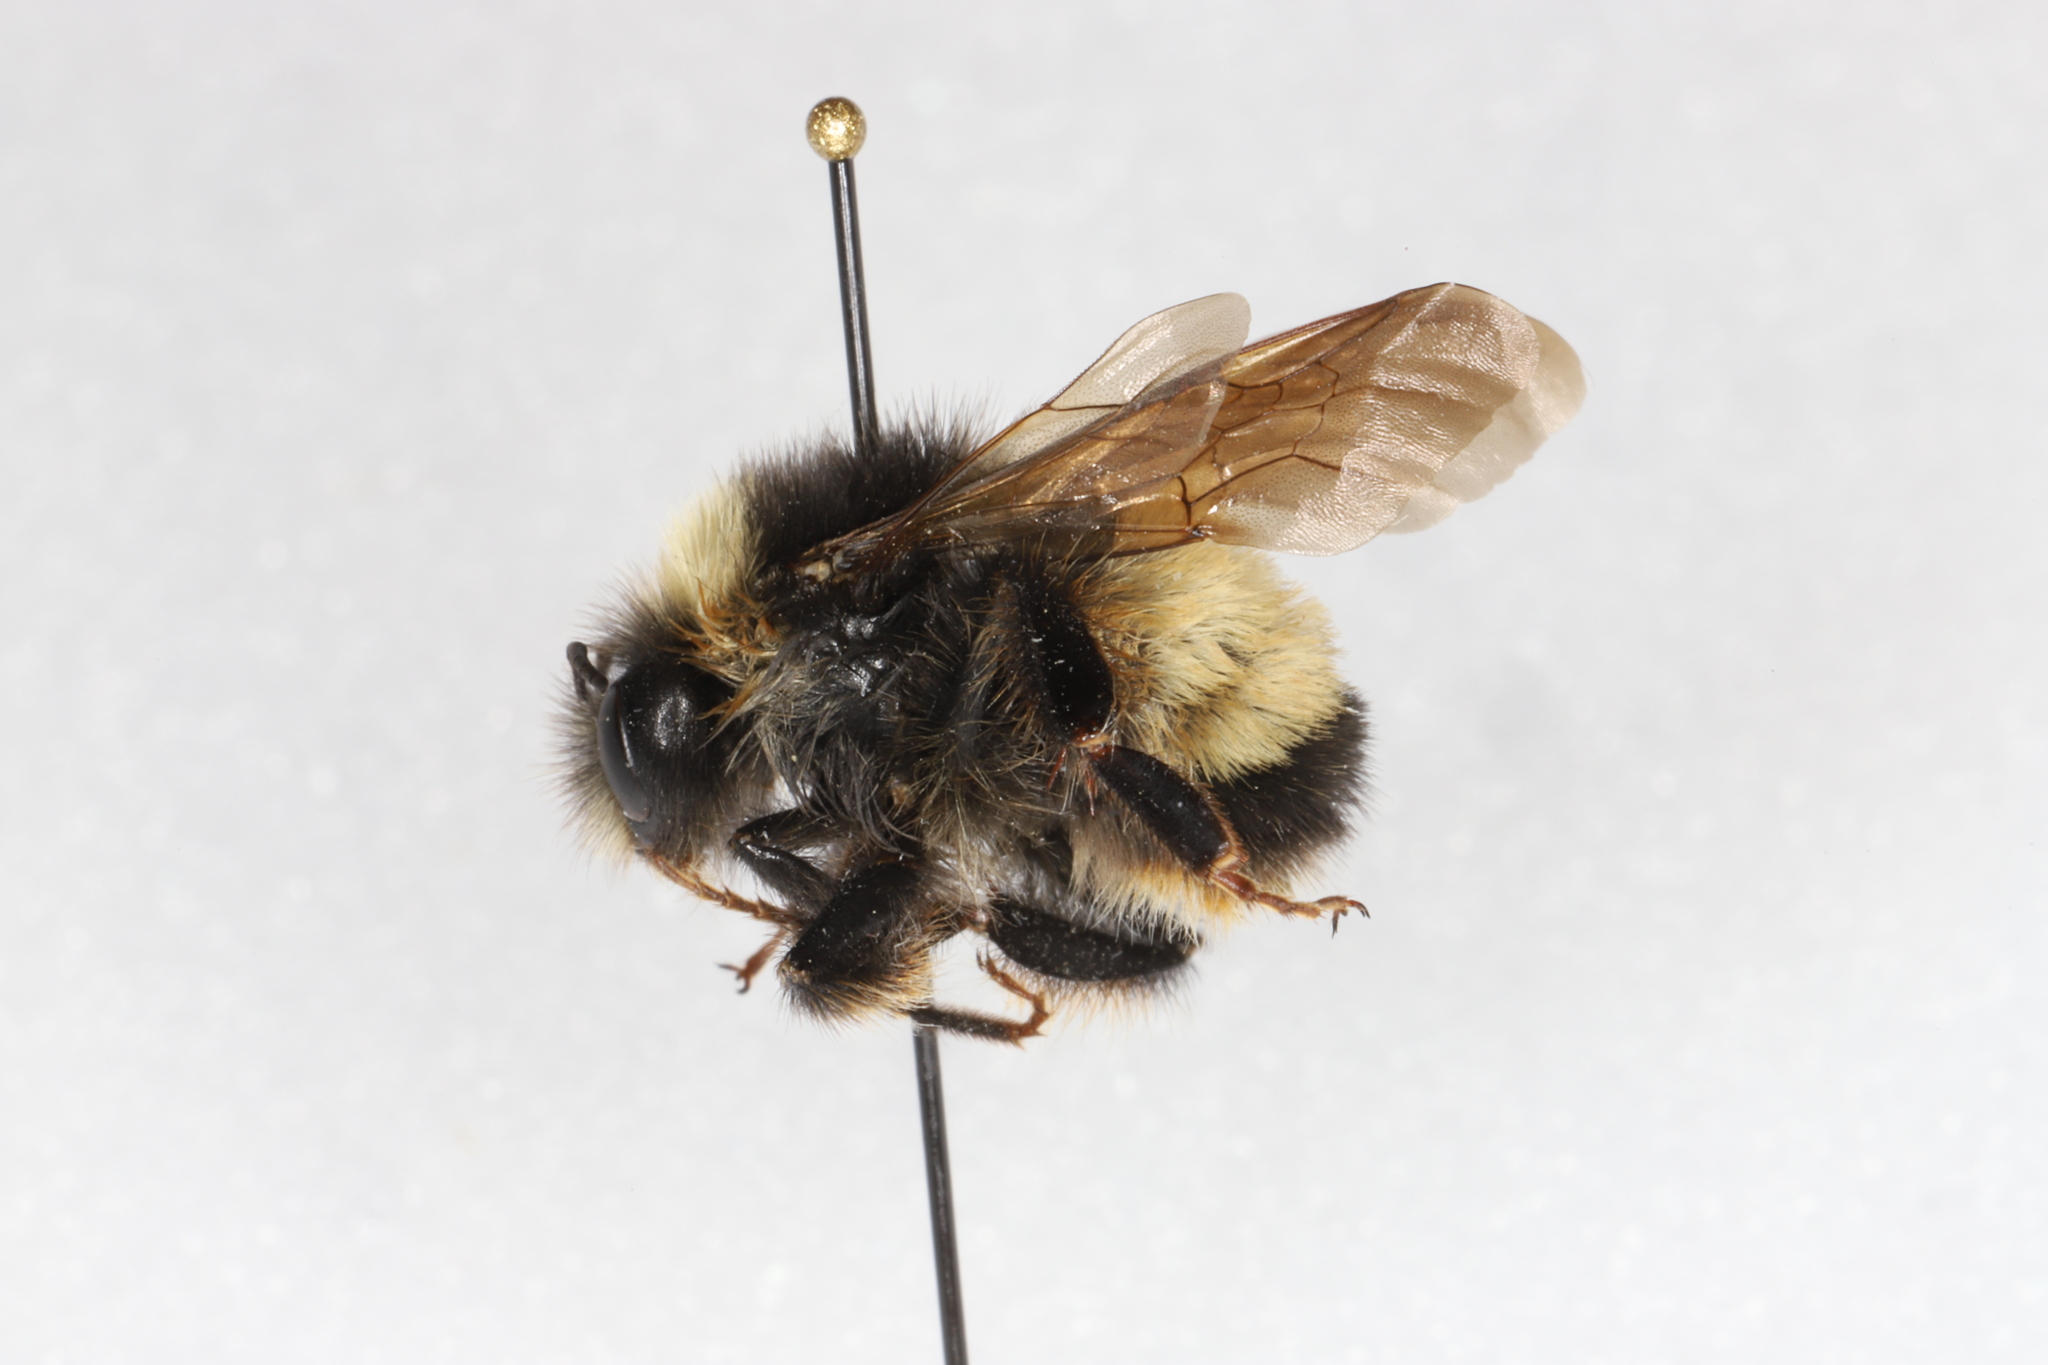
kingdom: Animalia
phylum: Arthropoda
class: Insecta
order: Hymenoptera
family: Apidae
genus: Bombus
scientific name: Bombus terricola
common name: Yellow-banded bumble bee
